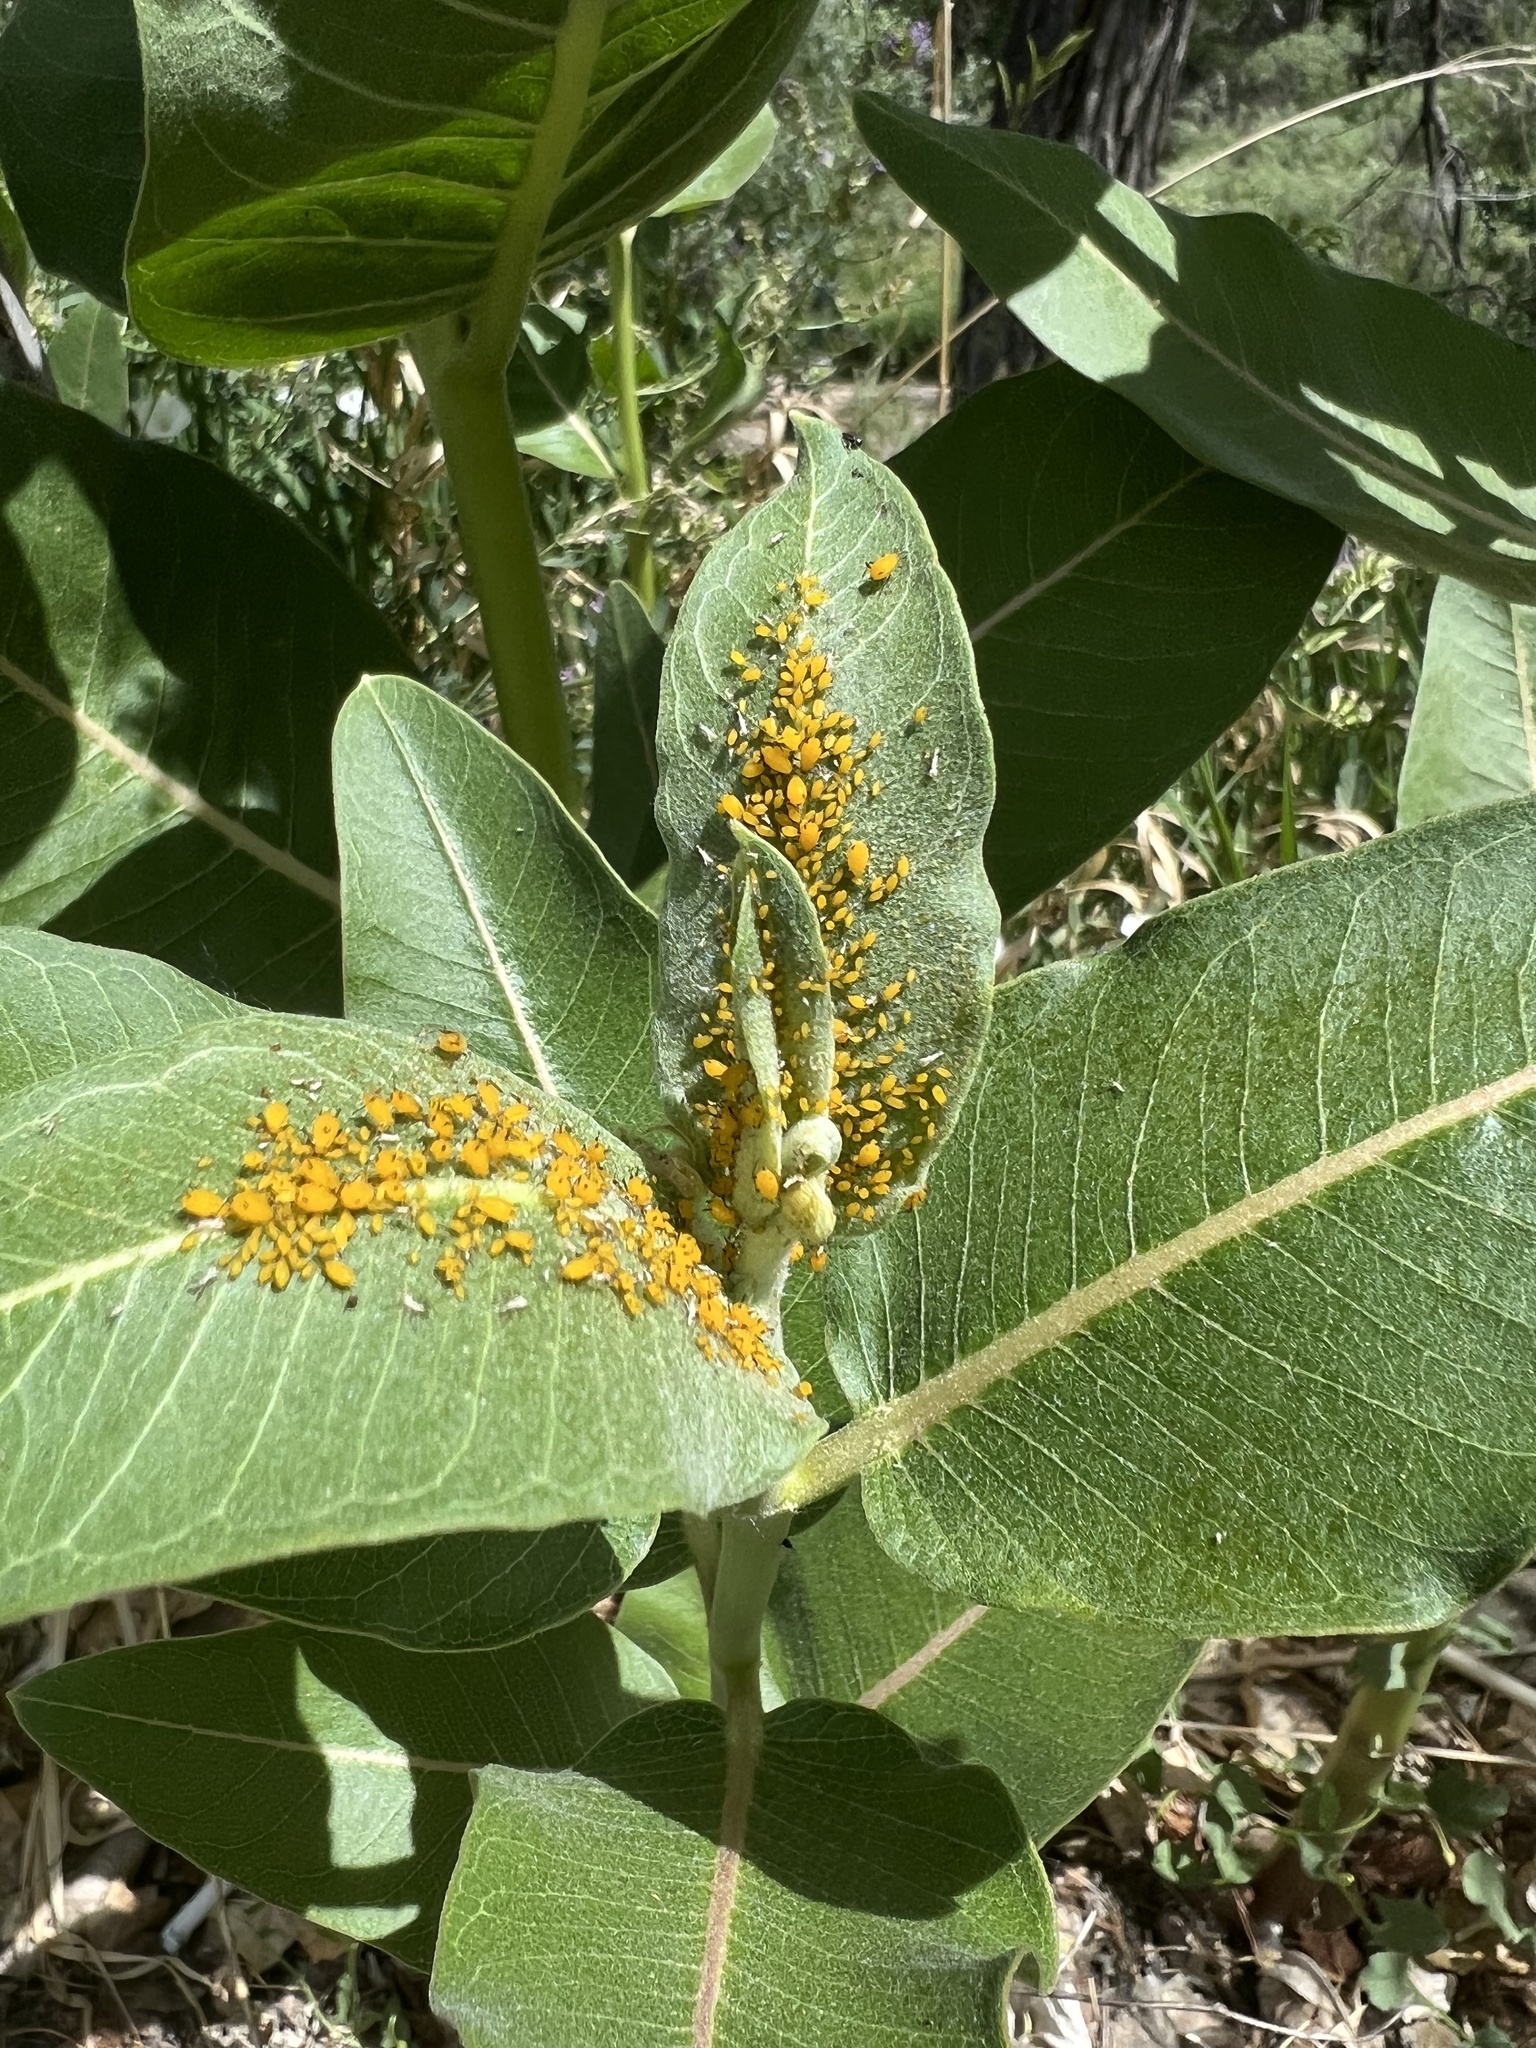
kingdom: Animalia
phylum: Arthropoda
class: Insecta
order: Hemiptera
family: Aphididae
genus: Aphis
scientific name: Aphis nerii
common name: Oleander aphid
